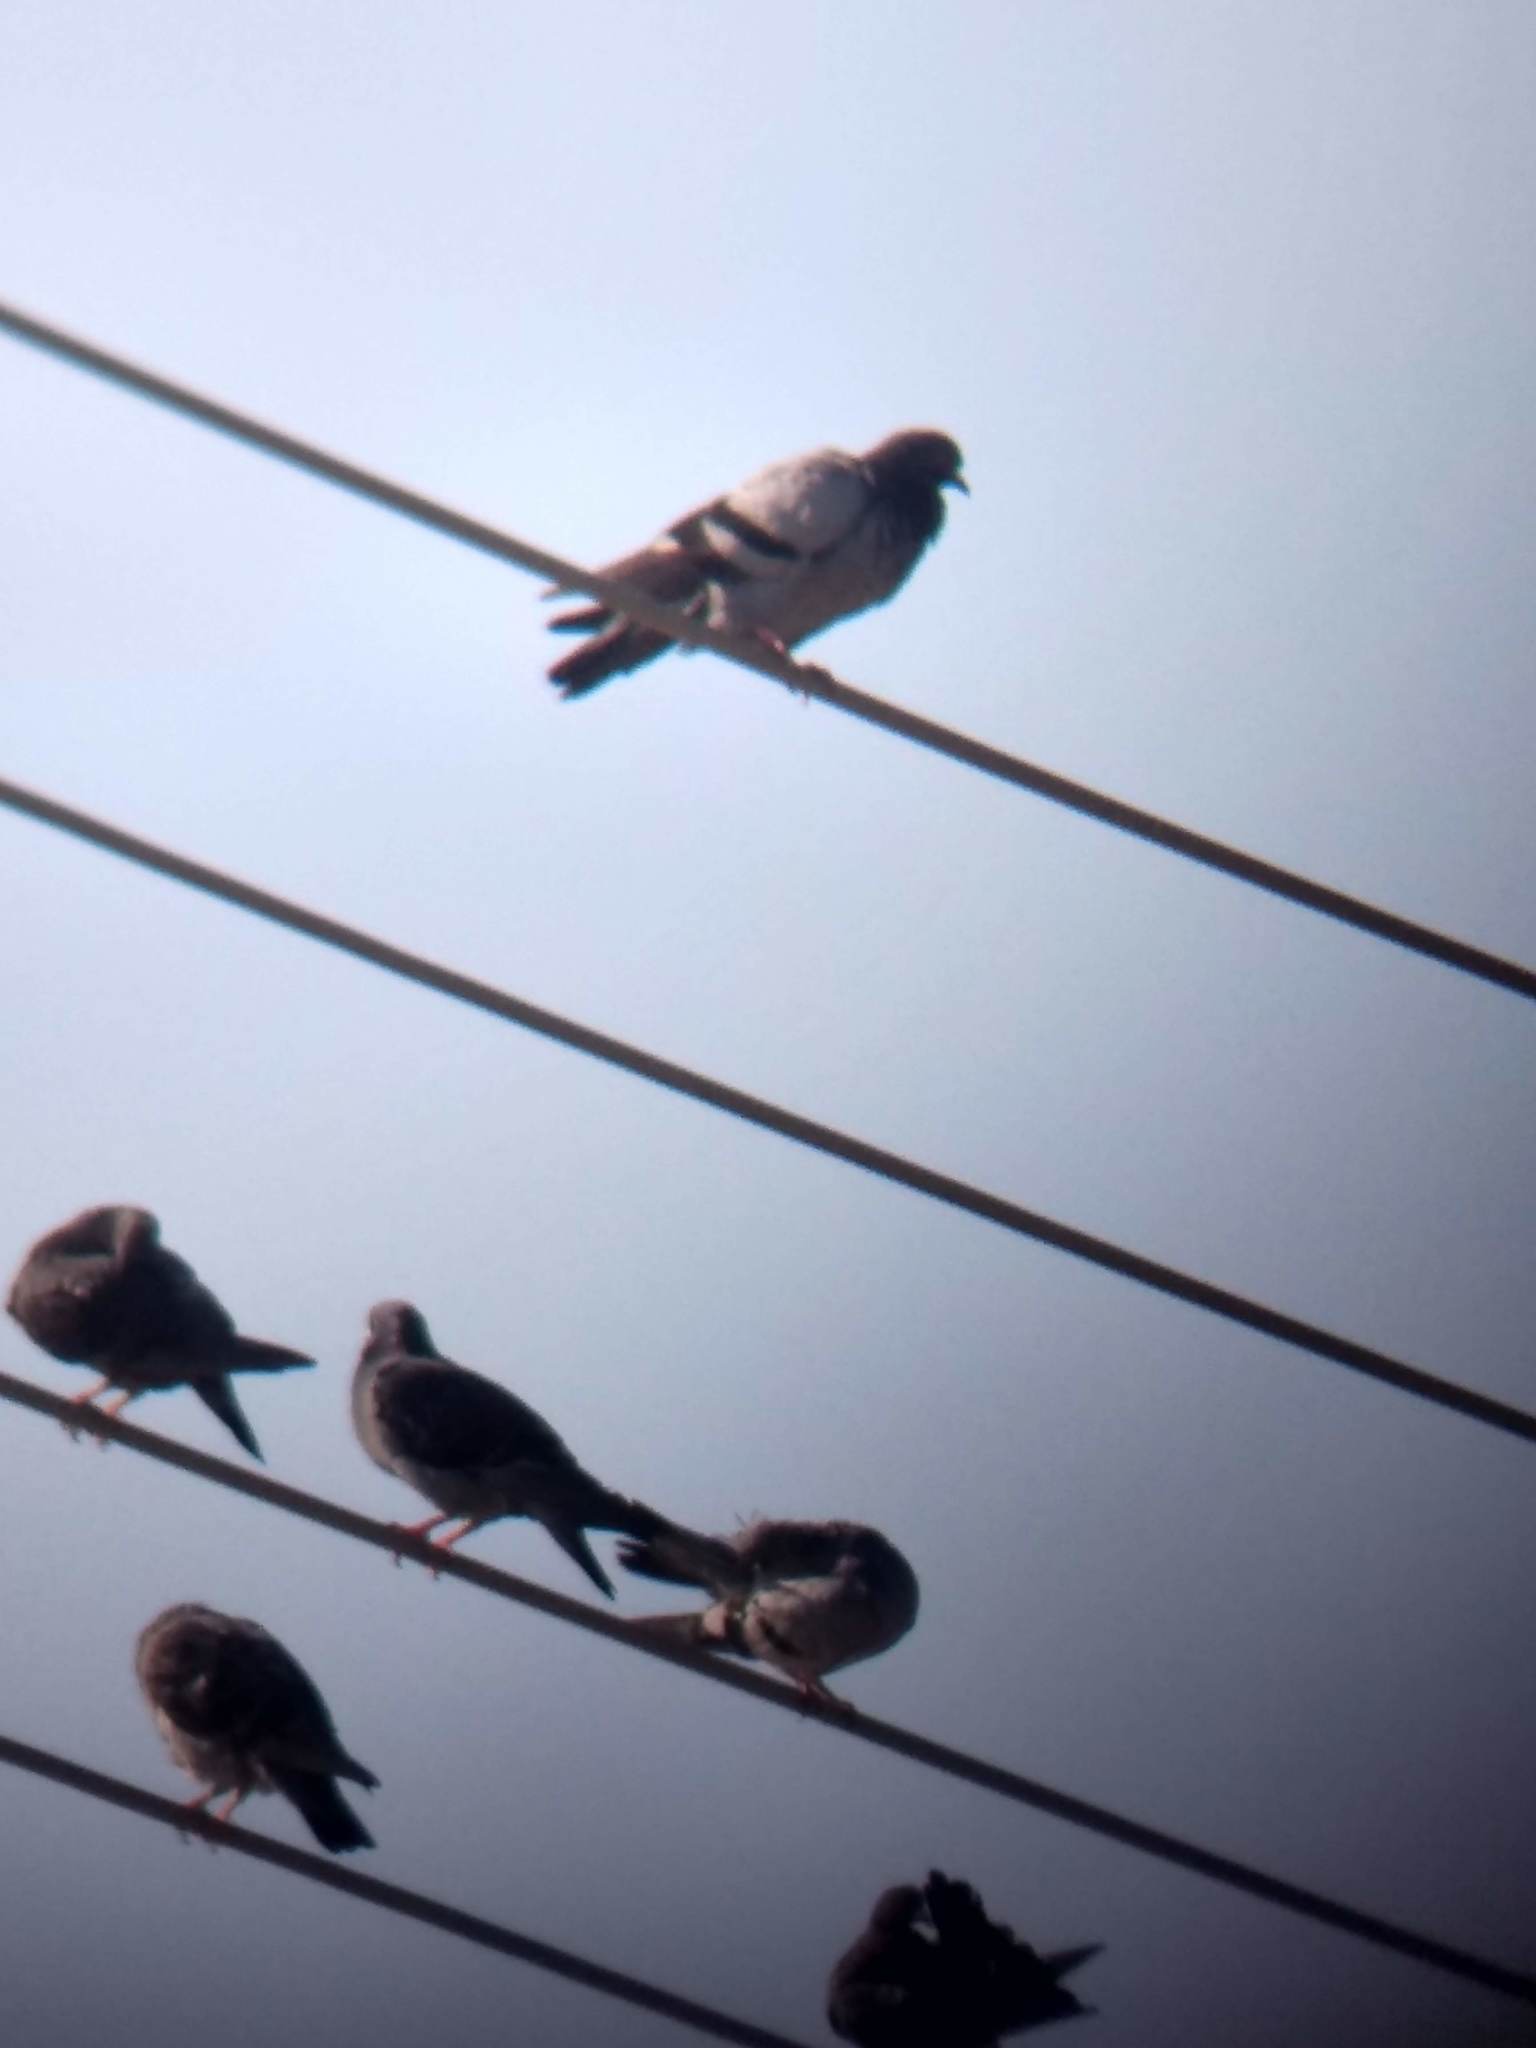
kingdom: Animalia
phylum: Chordata
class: Aves
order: Columbiformes
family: Columbidae
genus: Columba
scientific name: Columba livia
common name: Rock pigeon
